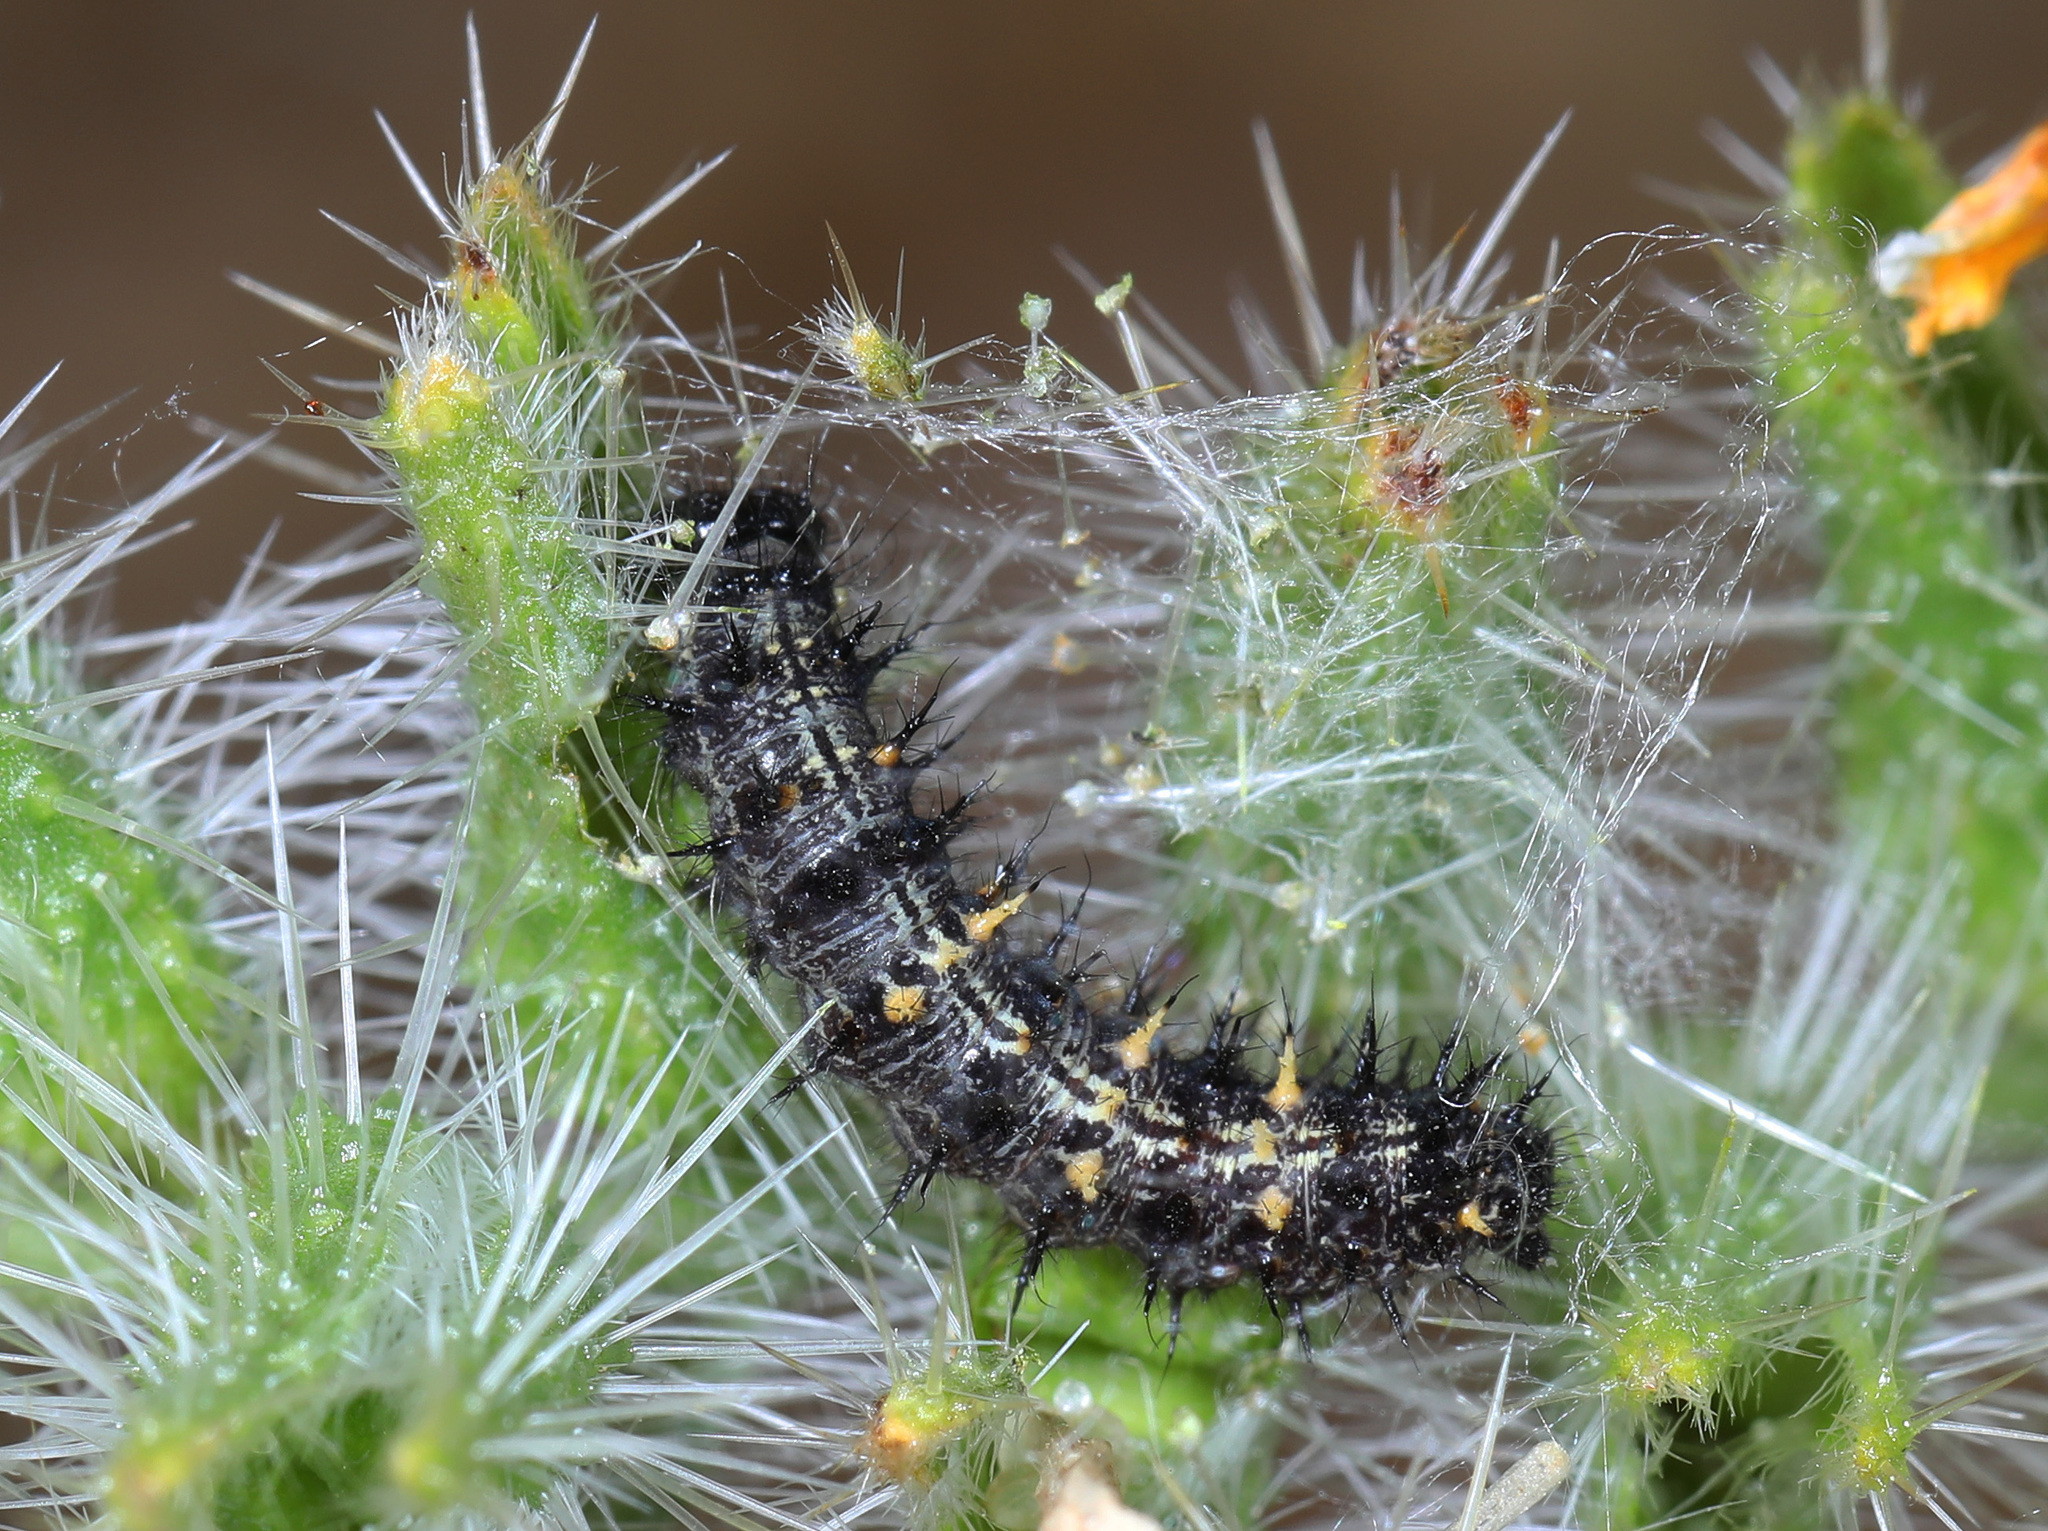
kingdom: Animalia
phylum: Arthropoda
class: Insecta
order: Lepidoptera
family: Nymphalidae
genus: Vanessa
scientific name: Vanessa cardui
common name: Painted lady
